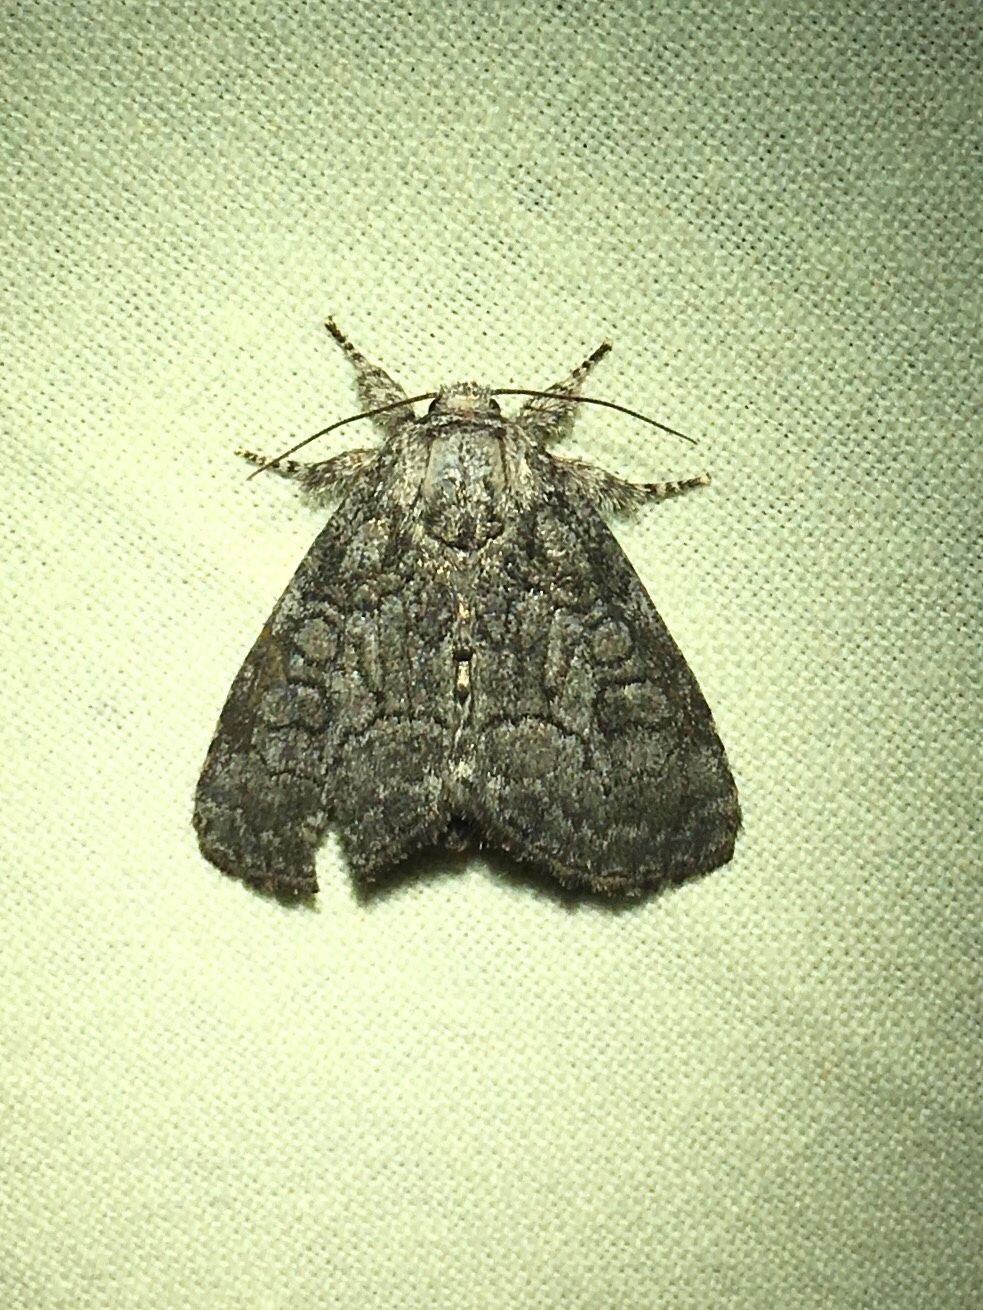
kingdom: Animalia
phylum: Arthropoda
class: Insecta
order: Lepidoptera
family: Noctuidae
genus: Raphia
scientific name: Raphia frater
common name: Brother
